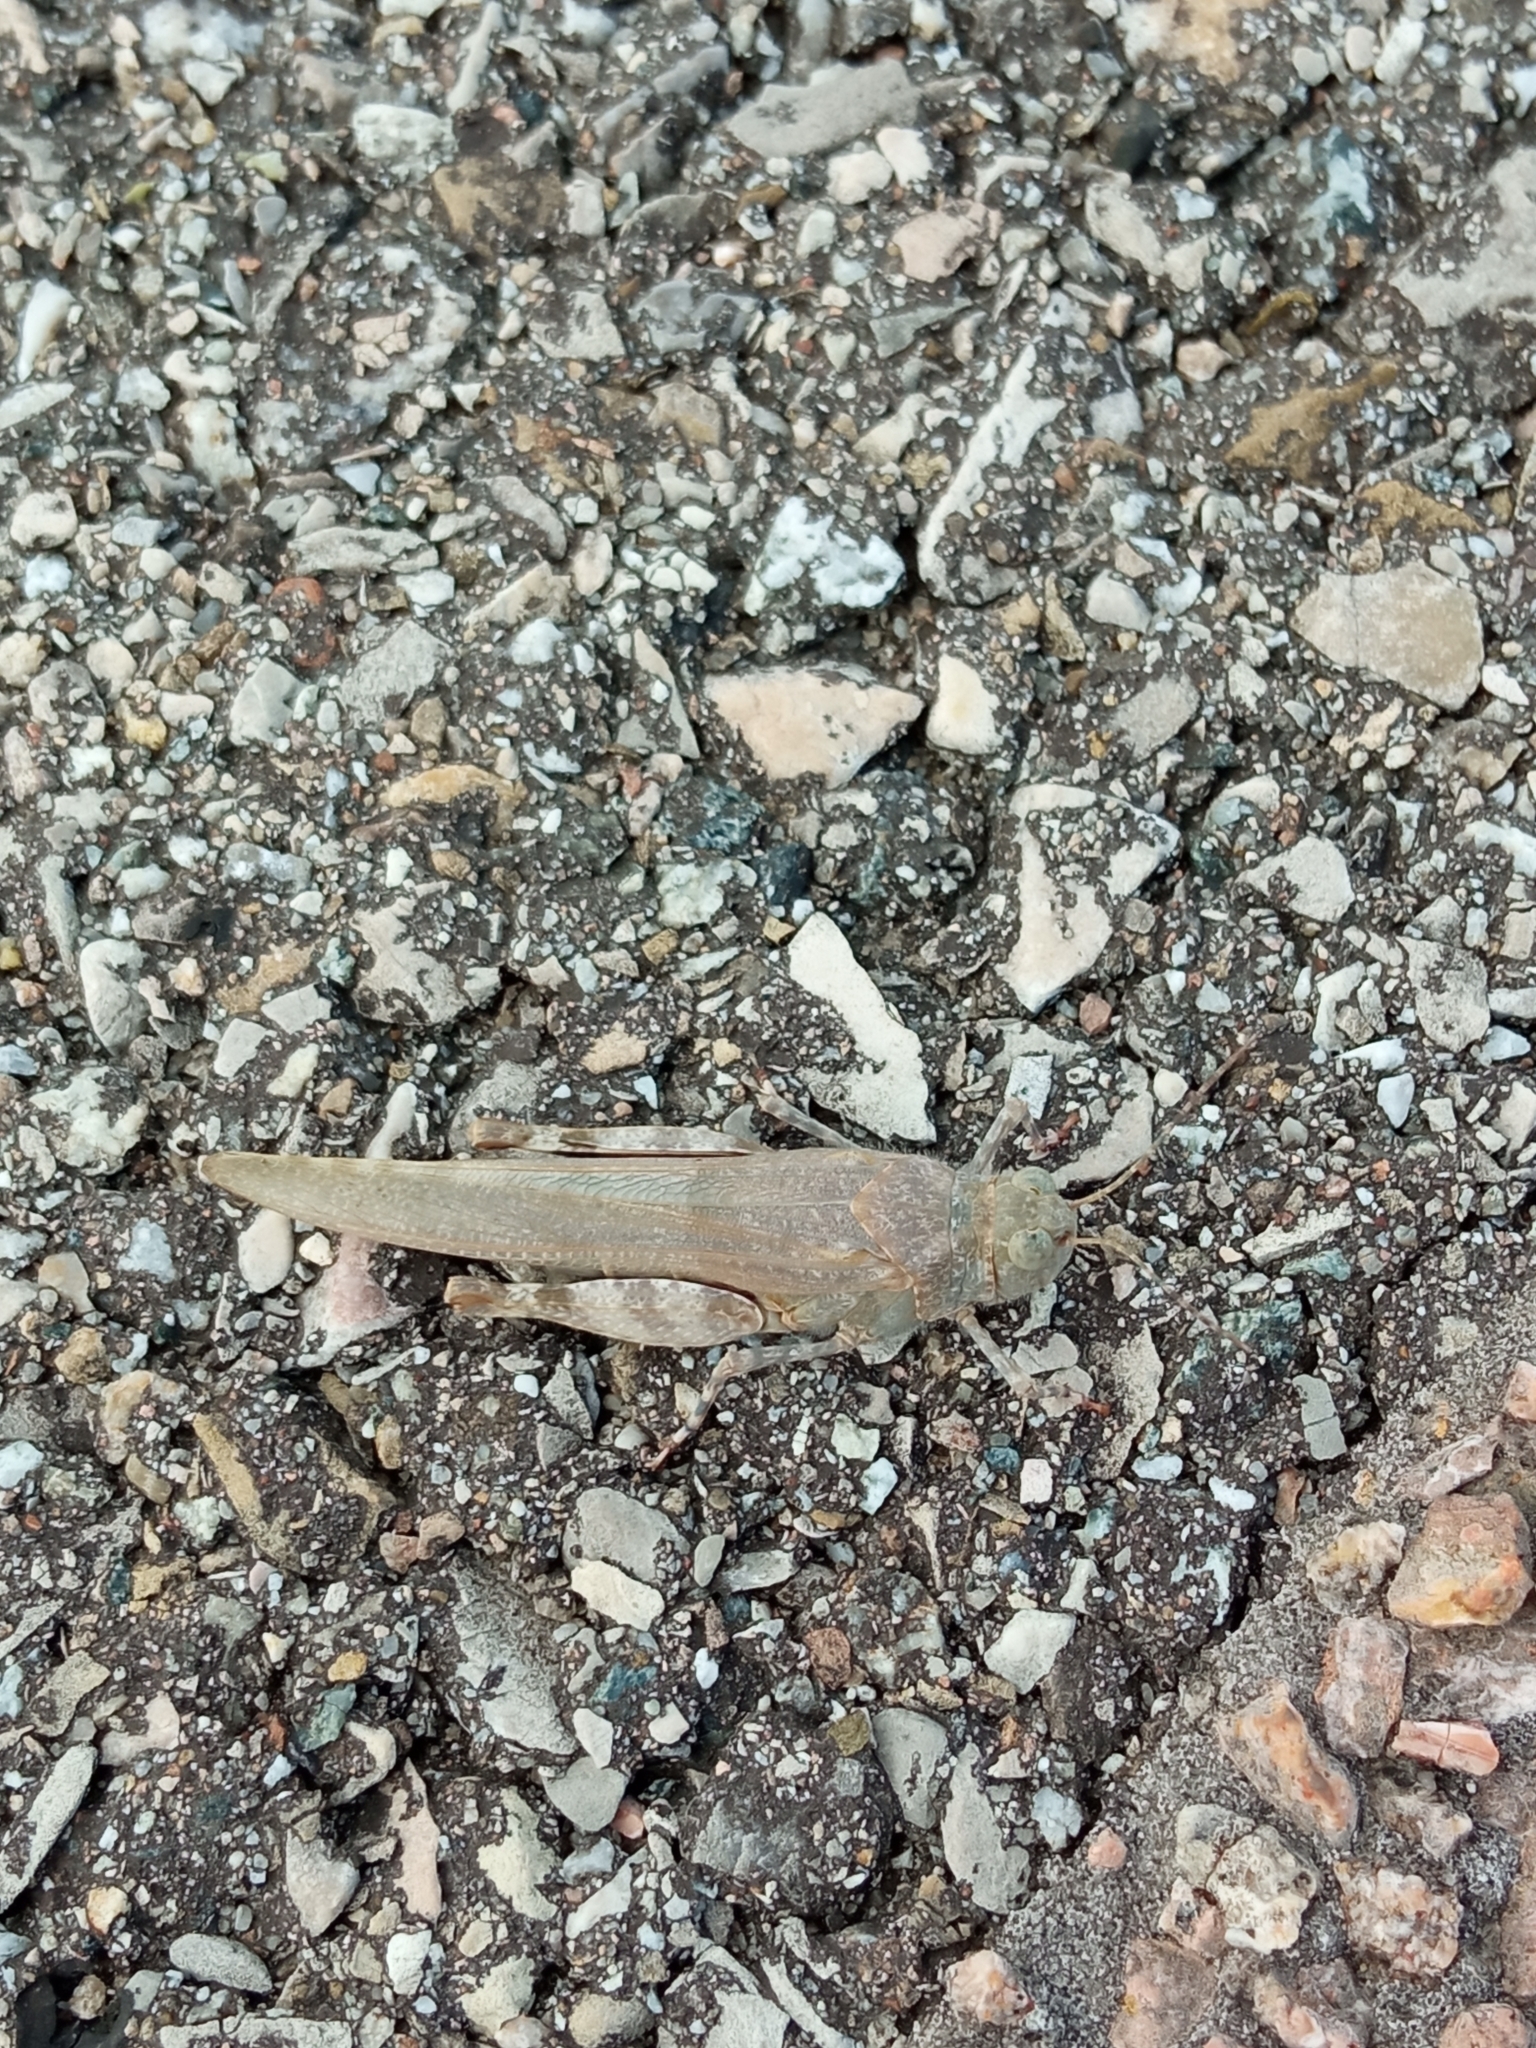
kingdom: Animalia
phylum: Arthropoda
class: Insecta
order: Orthoptera
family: Acrididae
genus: Sphingonotus
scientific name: Sphingonotus caerulans
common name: Blue-winged locust
